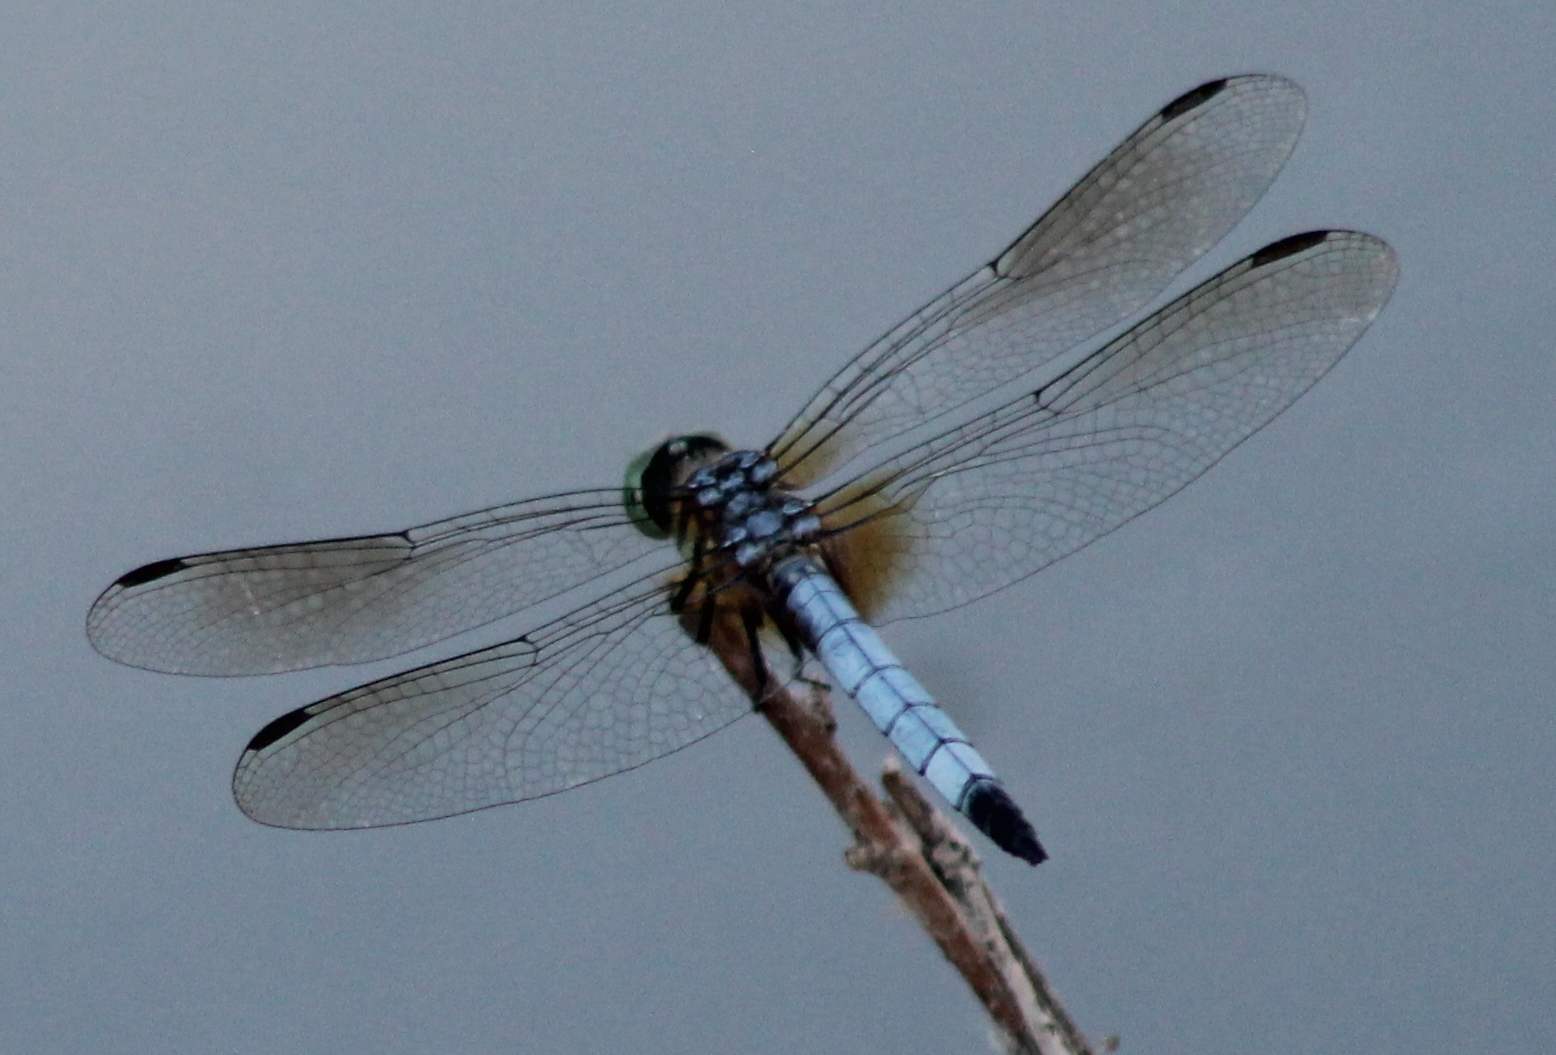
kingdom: Animalia
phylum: Arthropoda
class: Insecta
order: Odonata
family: Libellulidae
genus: Pachydiplax
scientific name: Pachydiplax longipennis
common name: Blue dasher
